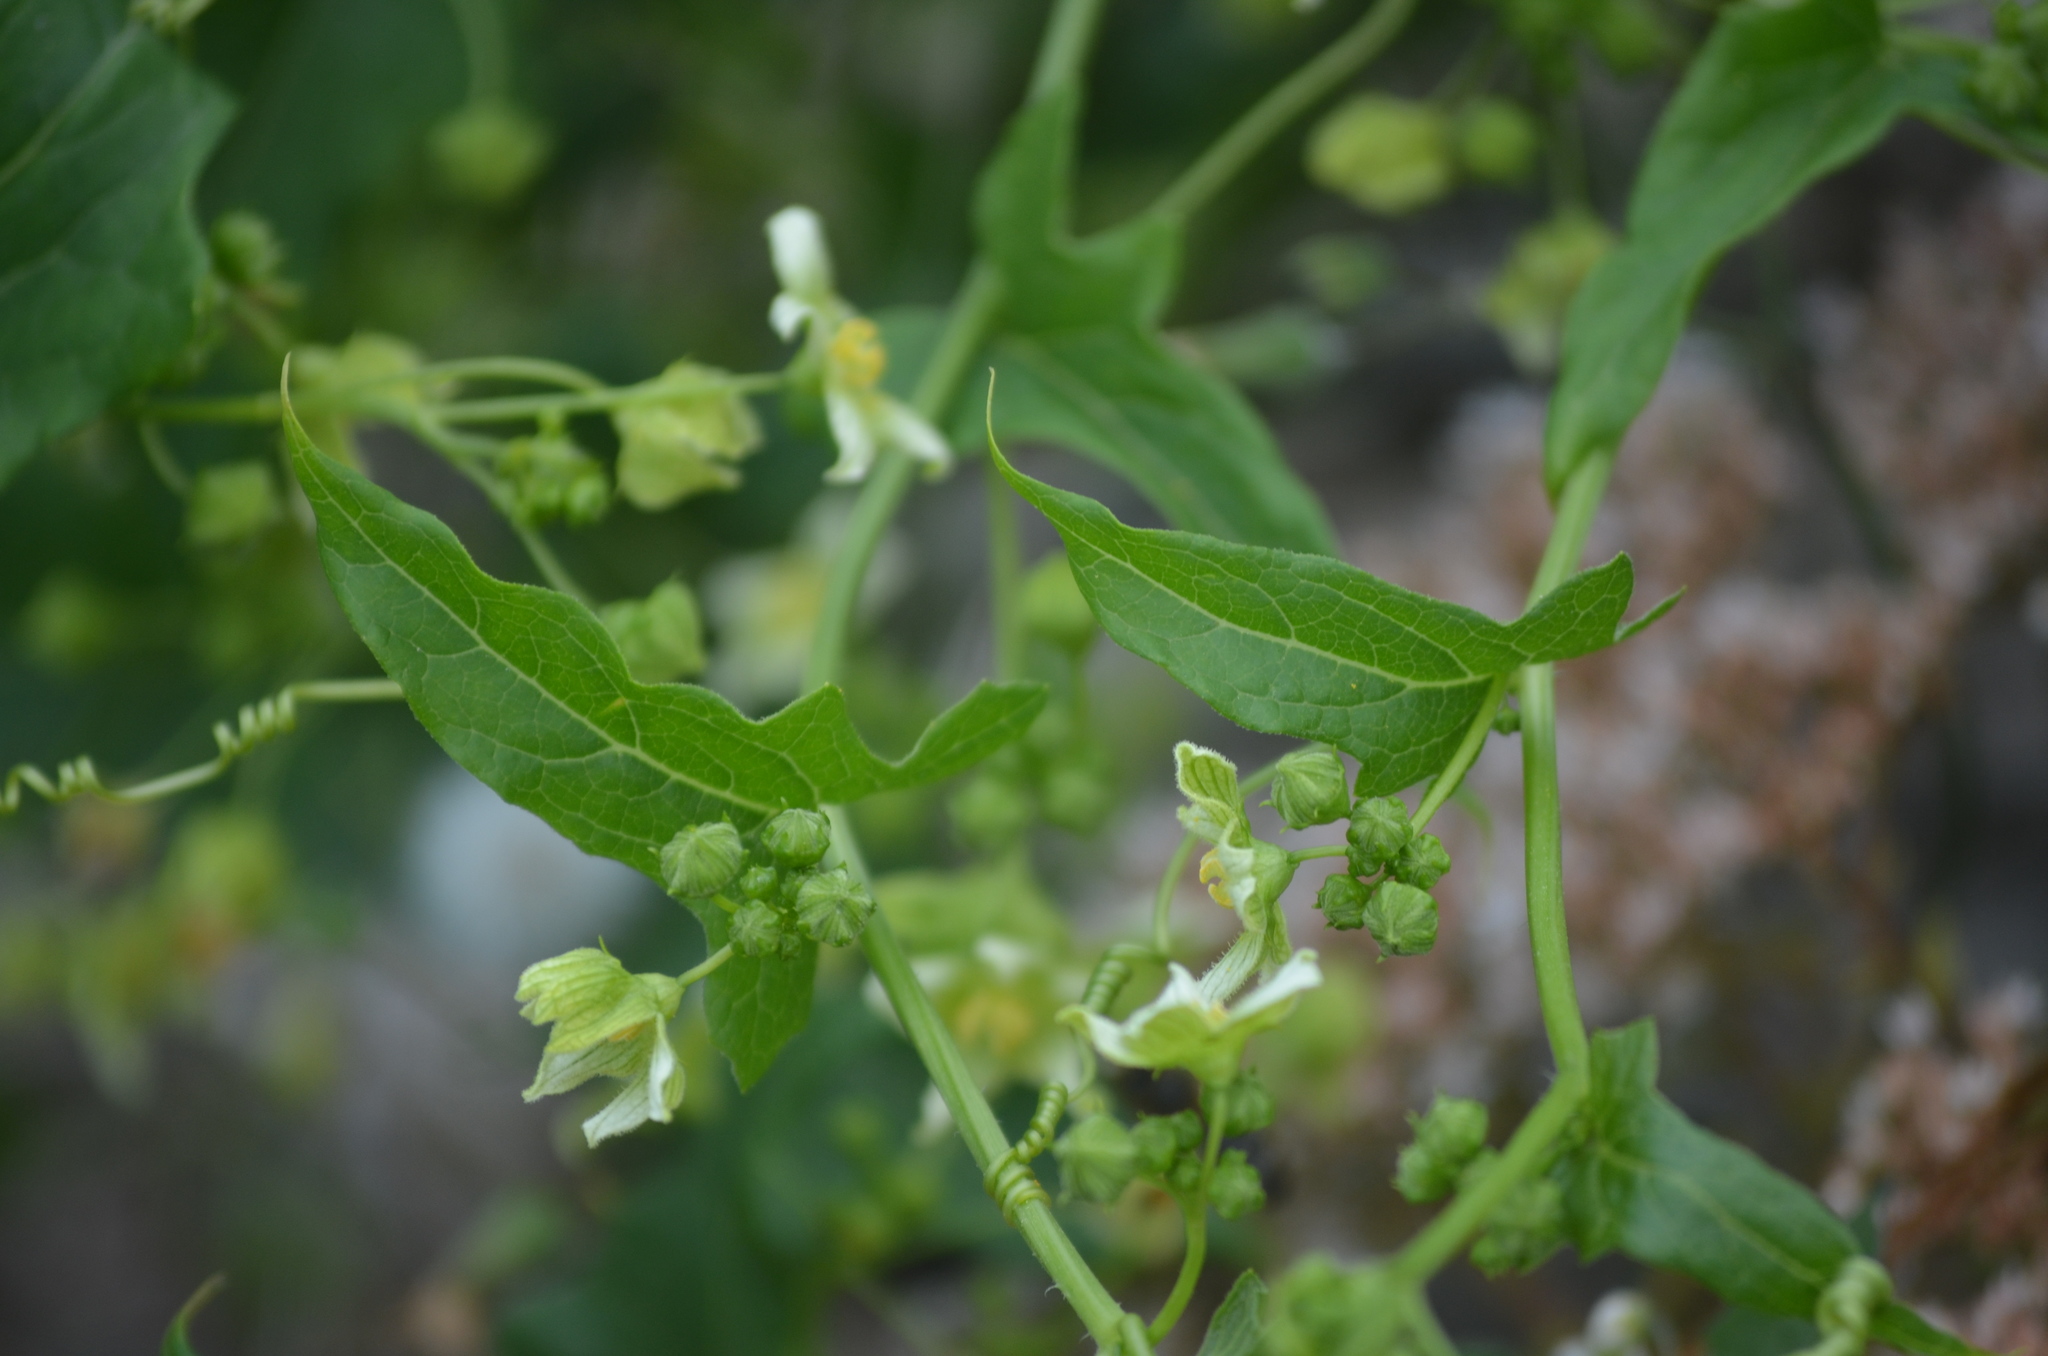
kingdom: Plantae
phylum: Tracheophyta
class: Magnoliopsida
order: Cucurbitales
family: Cucurbitaceae
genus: Bryonia
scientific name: Bryonia cretica
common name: Cretan bryony
